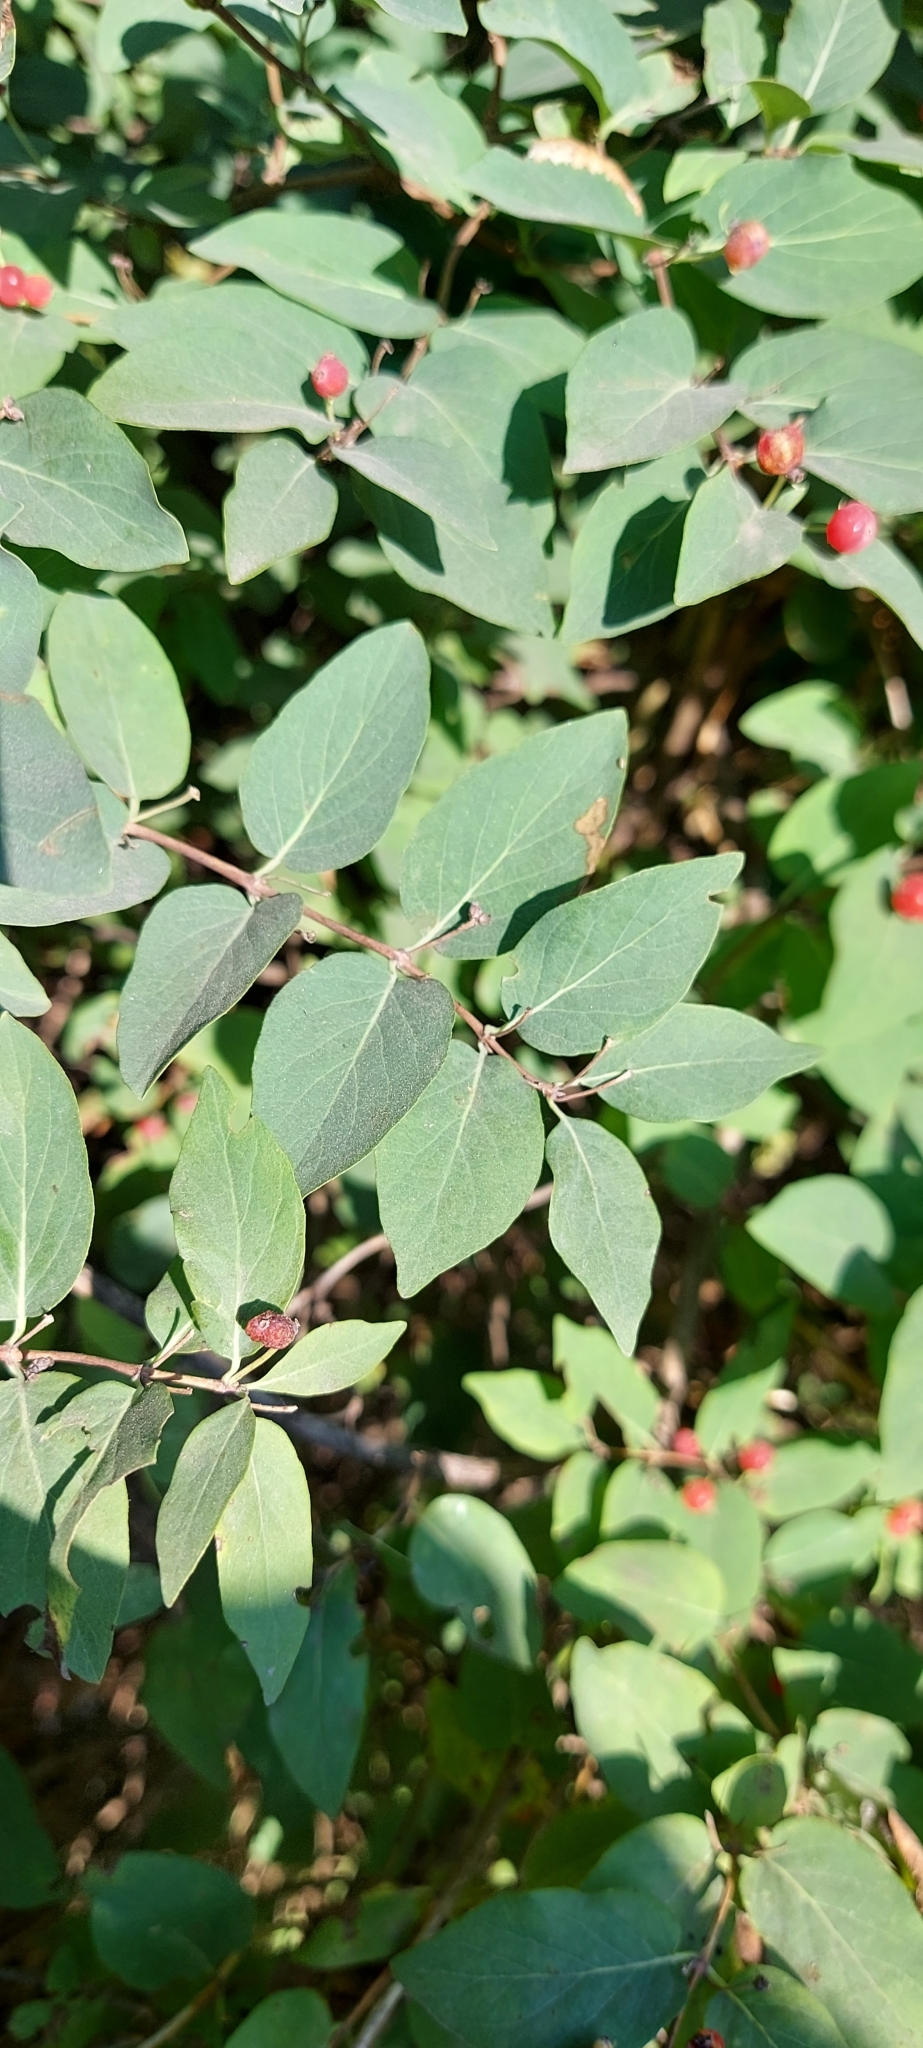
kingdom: Plantae
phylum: Tracheophyta
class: Magnoliopsida
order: Dipsacales
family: Caprifoliaceae
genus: Lonicera
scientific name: Lonicera tatarica
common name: Tatarian honeysuckle
